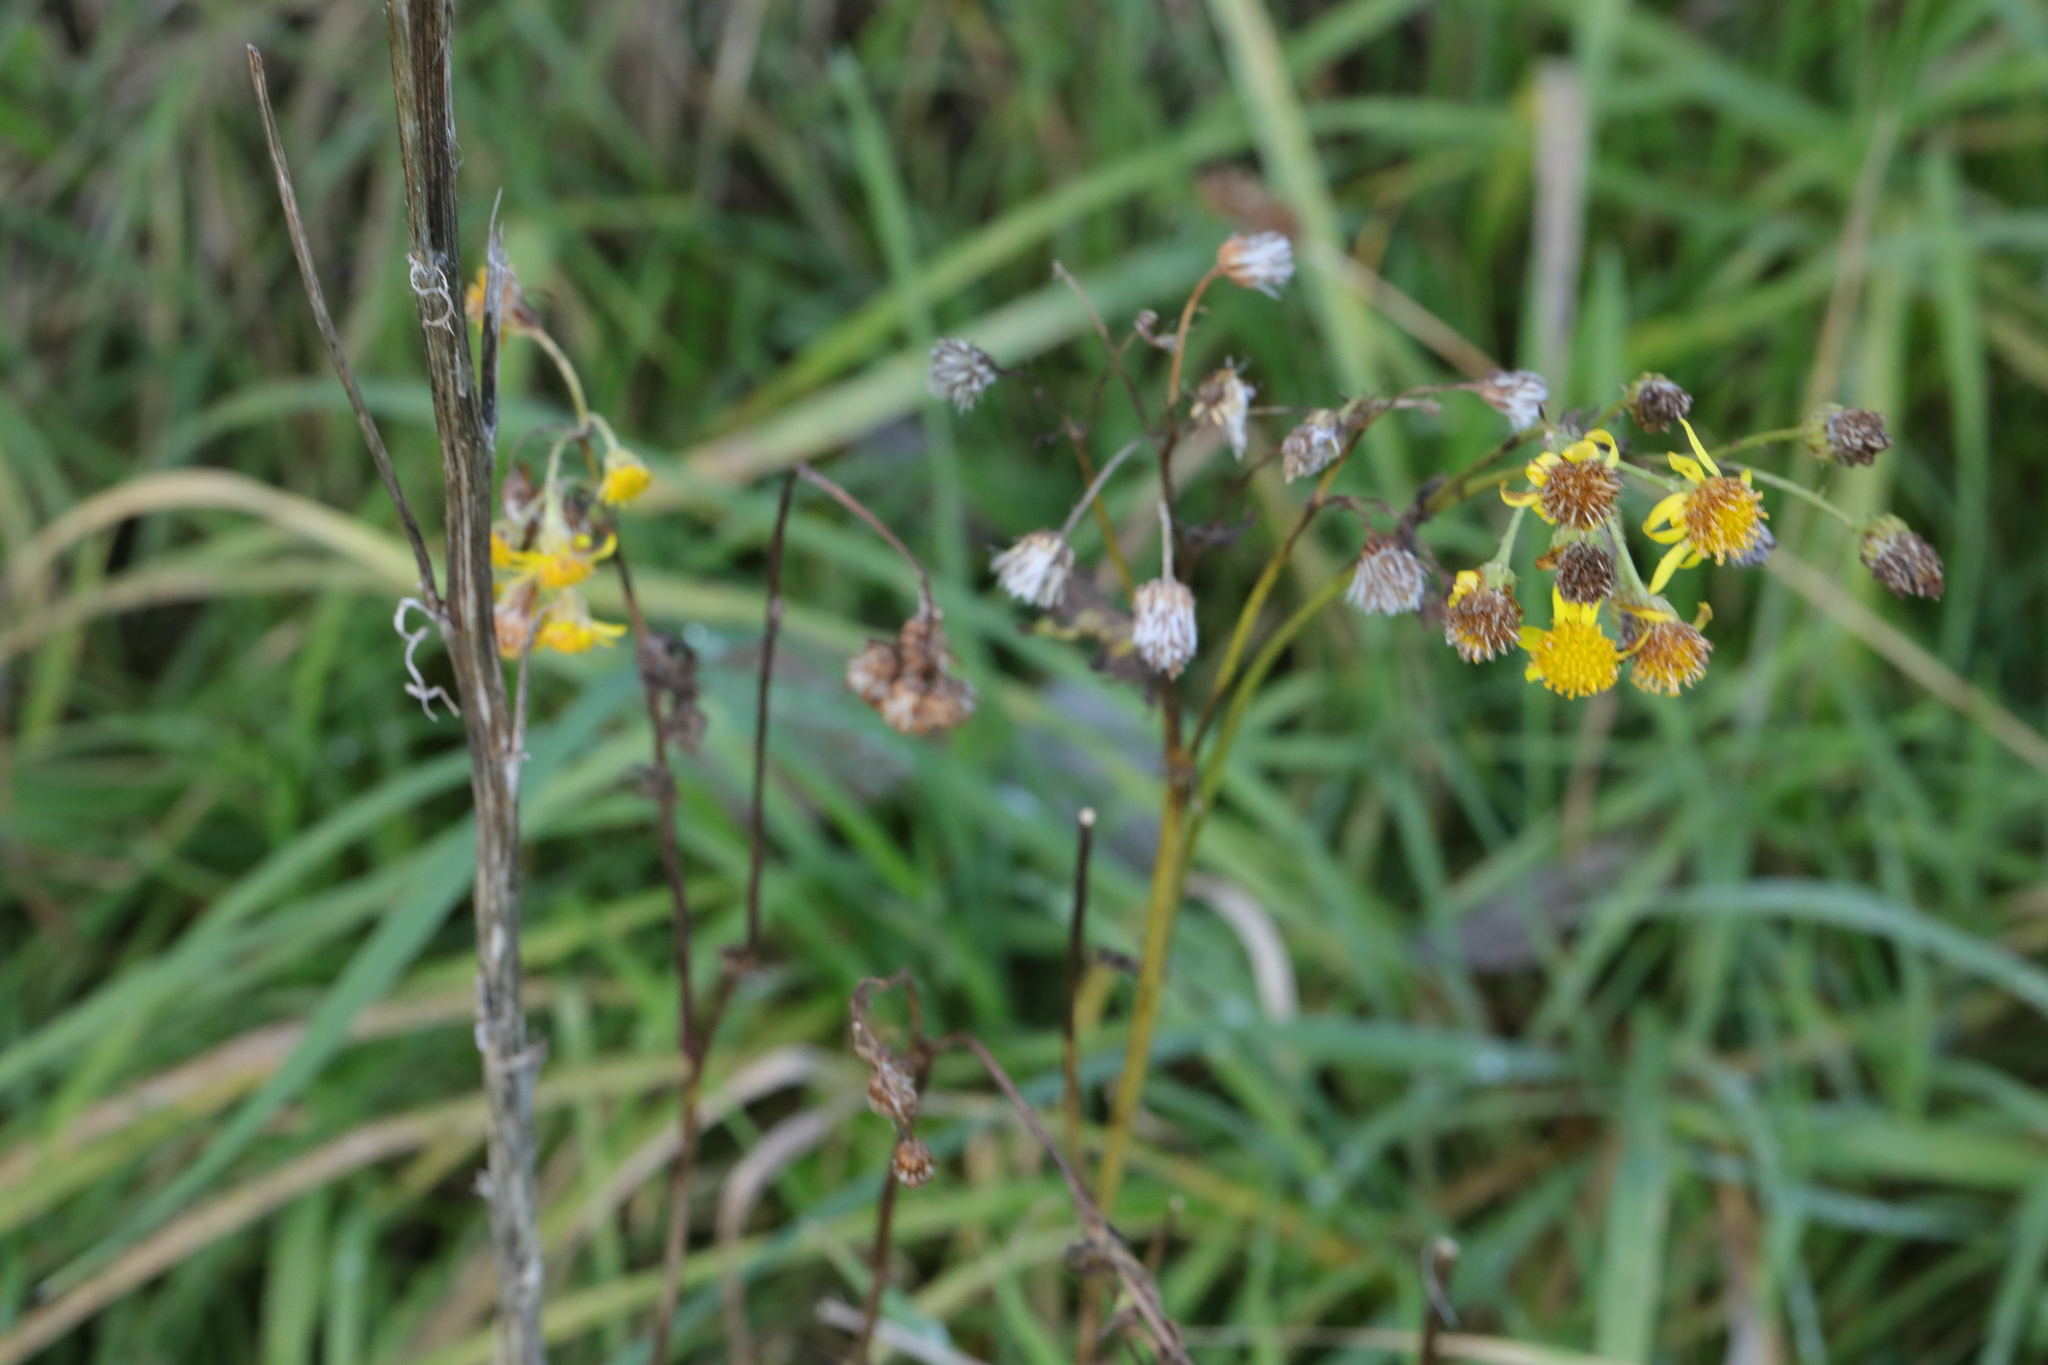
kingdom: Plantae
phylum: Tracheophyta
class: Magnoliopsida
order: Asterales
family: Asteraceae
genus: Jacobaea
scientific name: Jacobaea vulgaris
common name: Stinking willie
